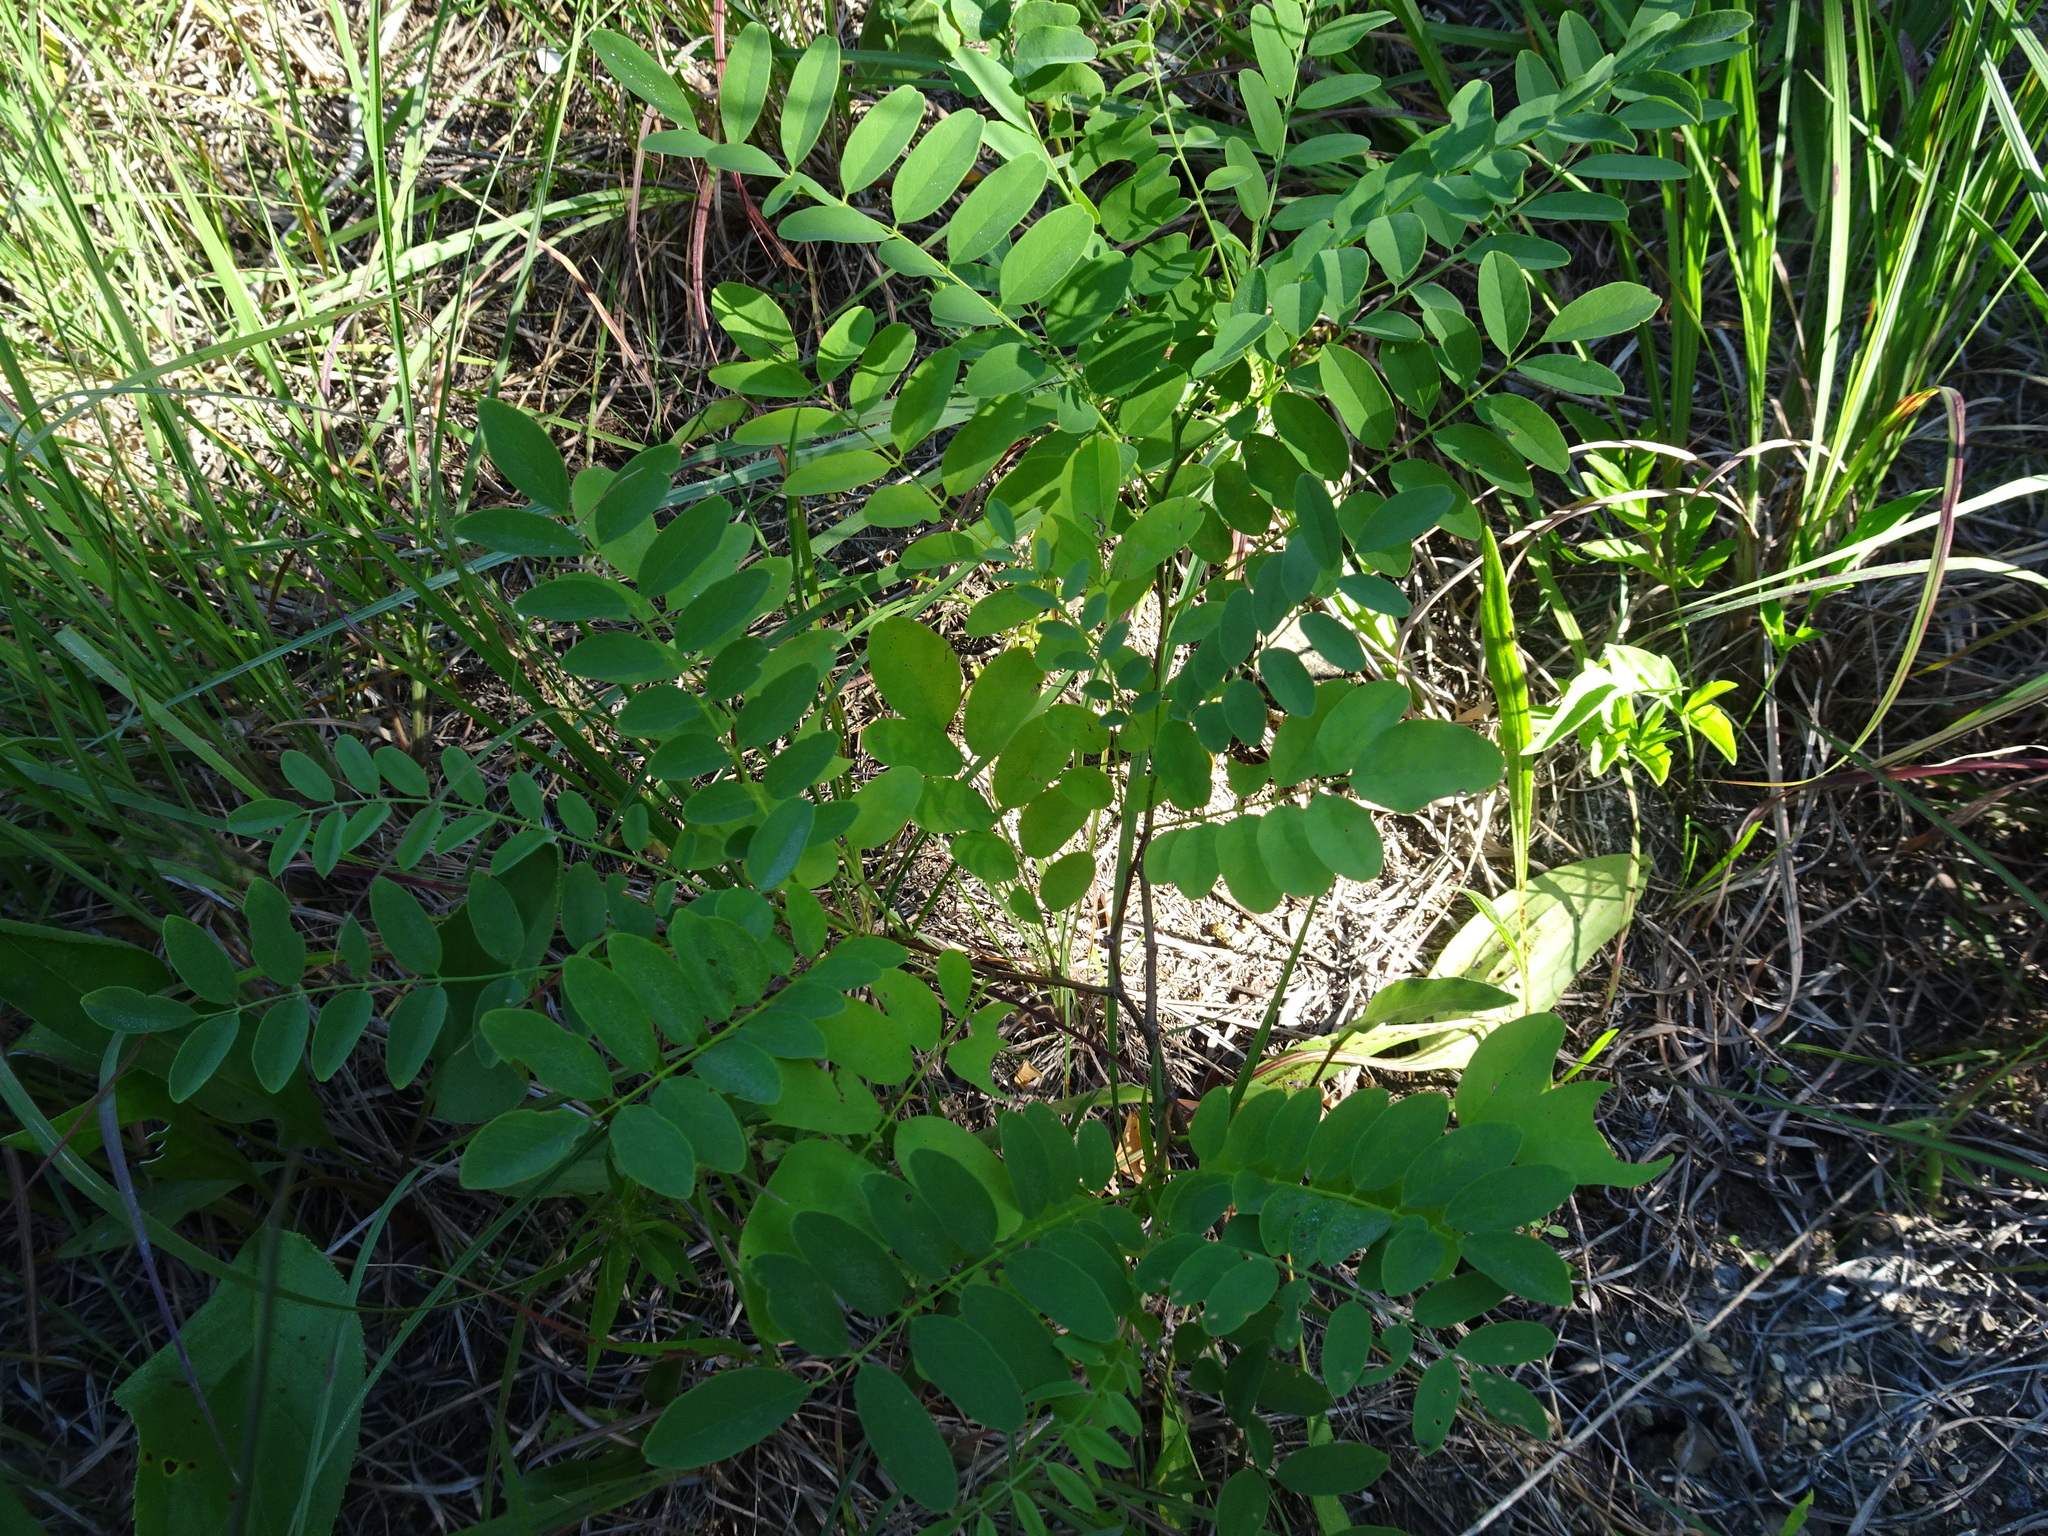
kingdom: Plantae
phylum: Tracheophyta
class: Magnoliopsida
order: Fabales
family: Fabaceae
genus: Robinia
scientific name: Robinia pseudoacacia
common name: Black locust
